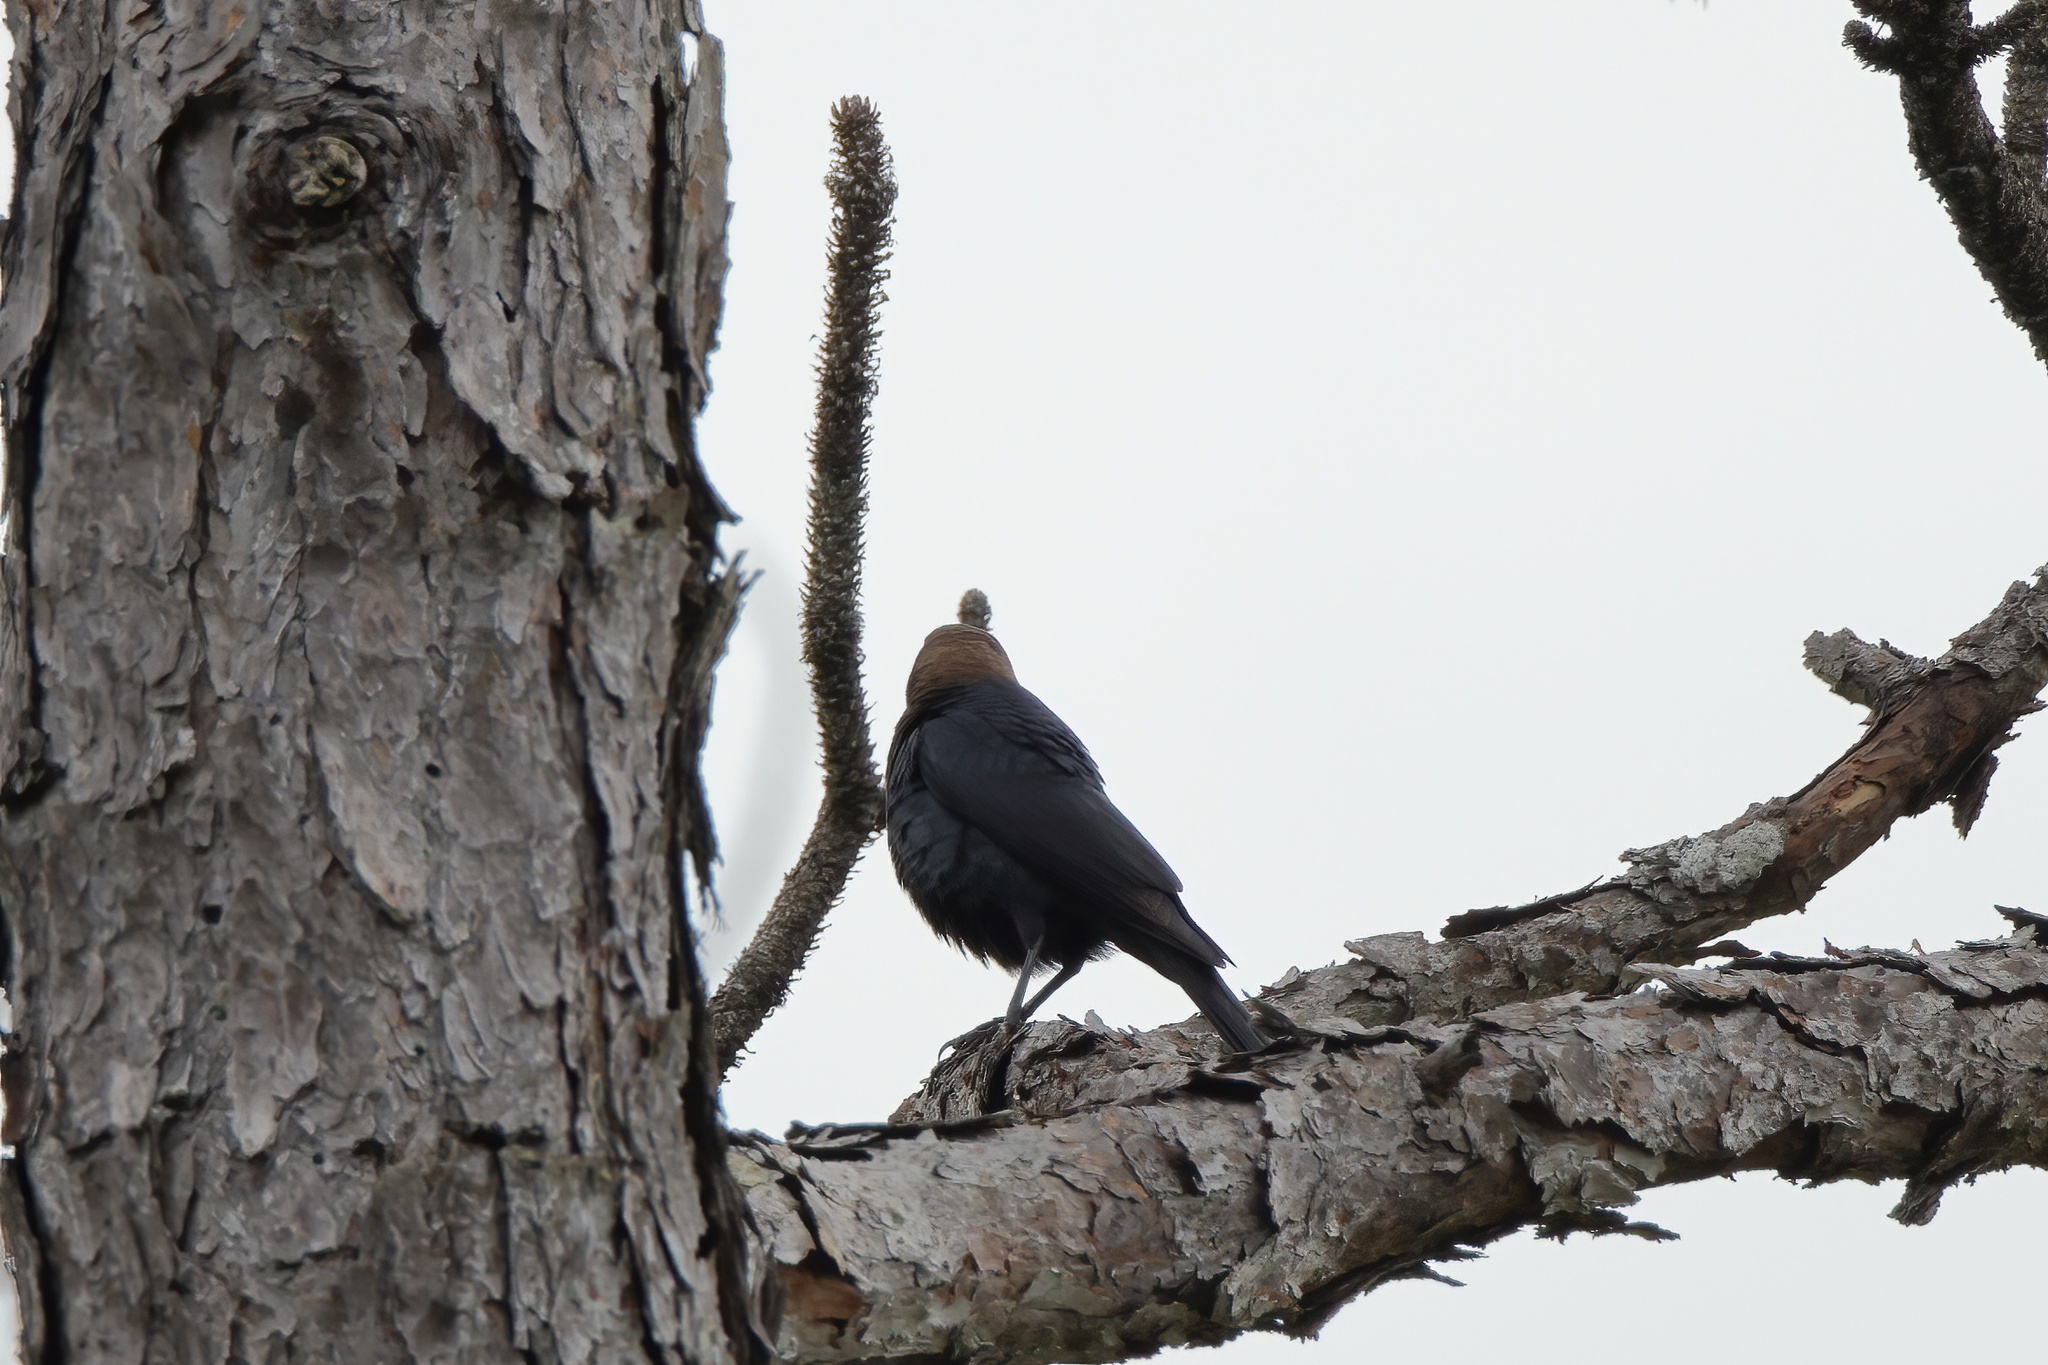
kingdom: Animalia
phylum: Chordata
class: Aves
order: Passeriformes
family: Icteridae
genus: Molothrus
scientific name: Molothrus ater
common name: Brown-headed cowbird
